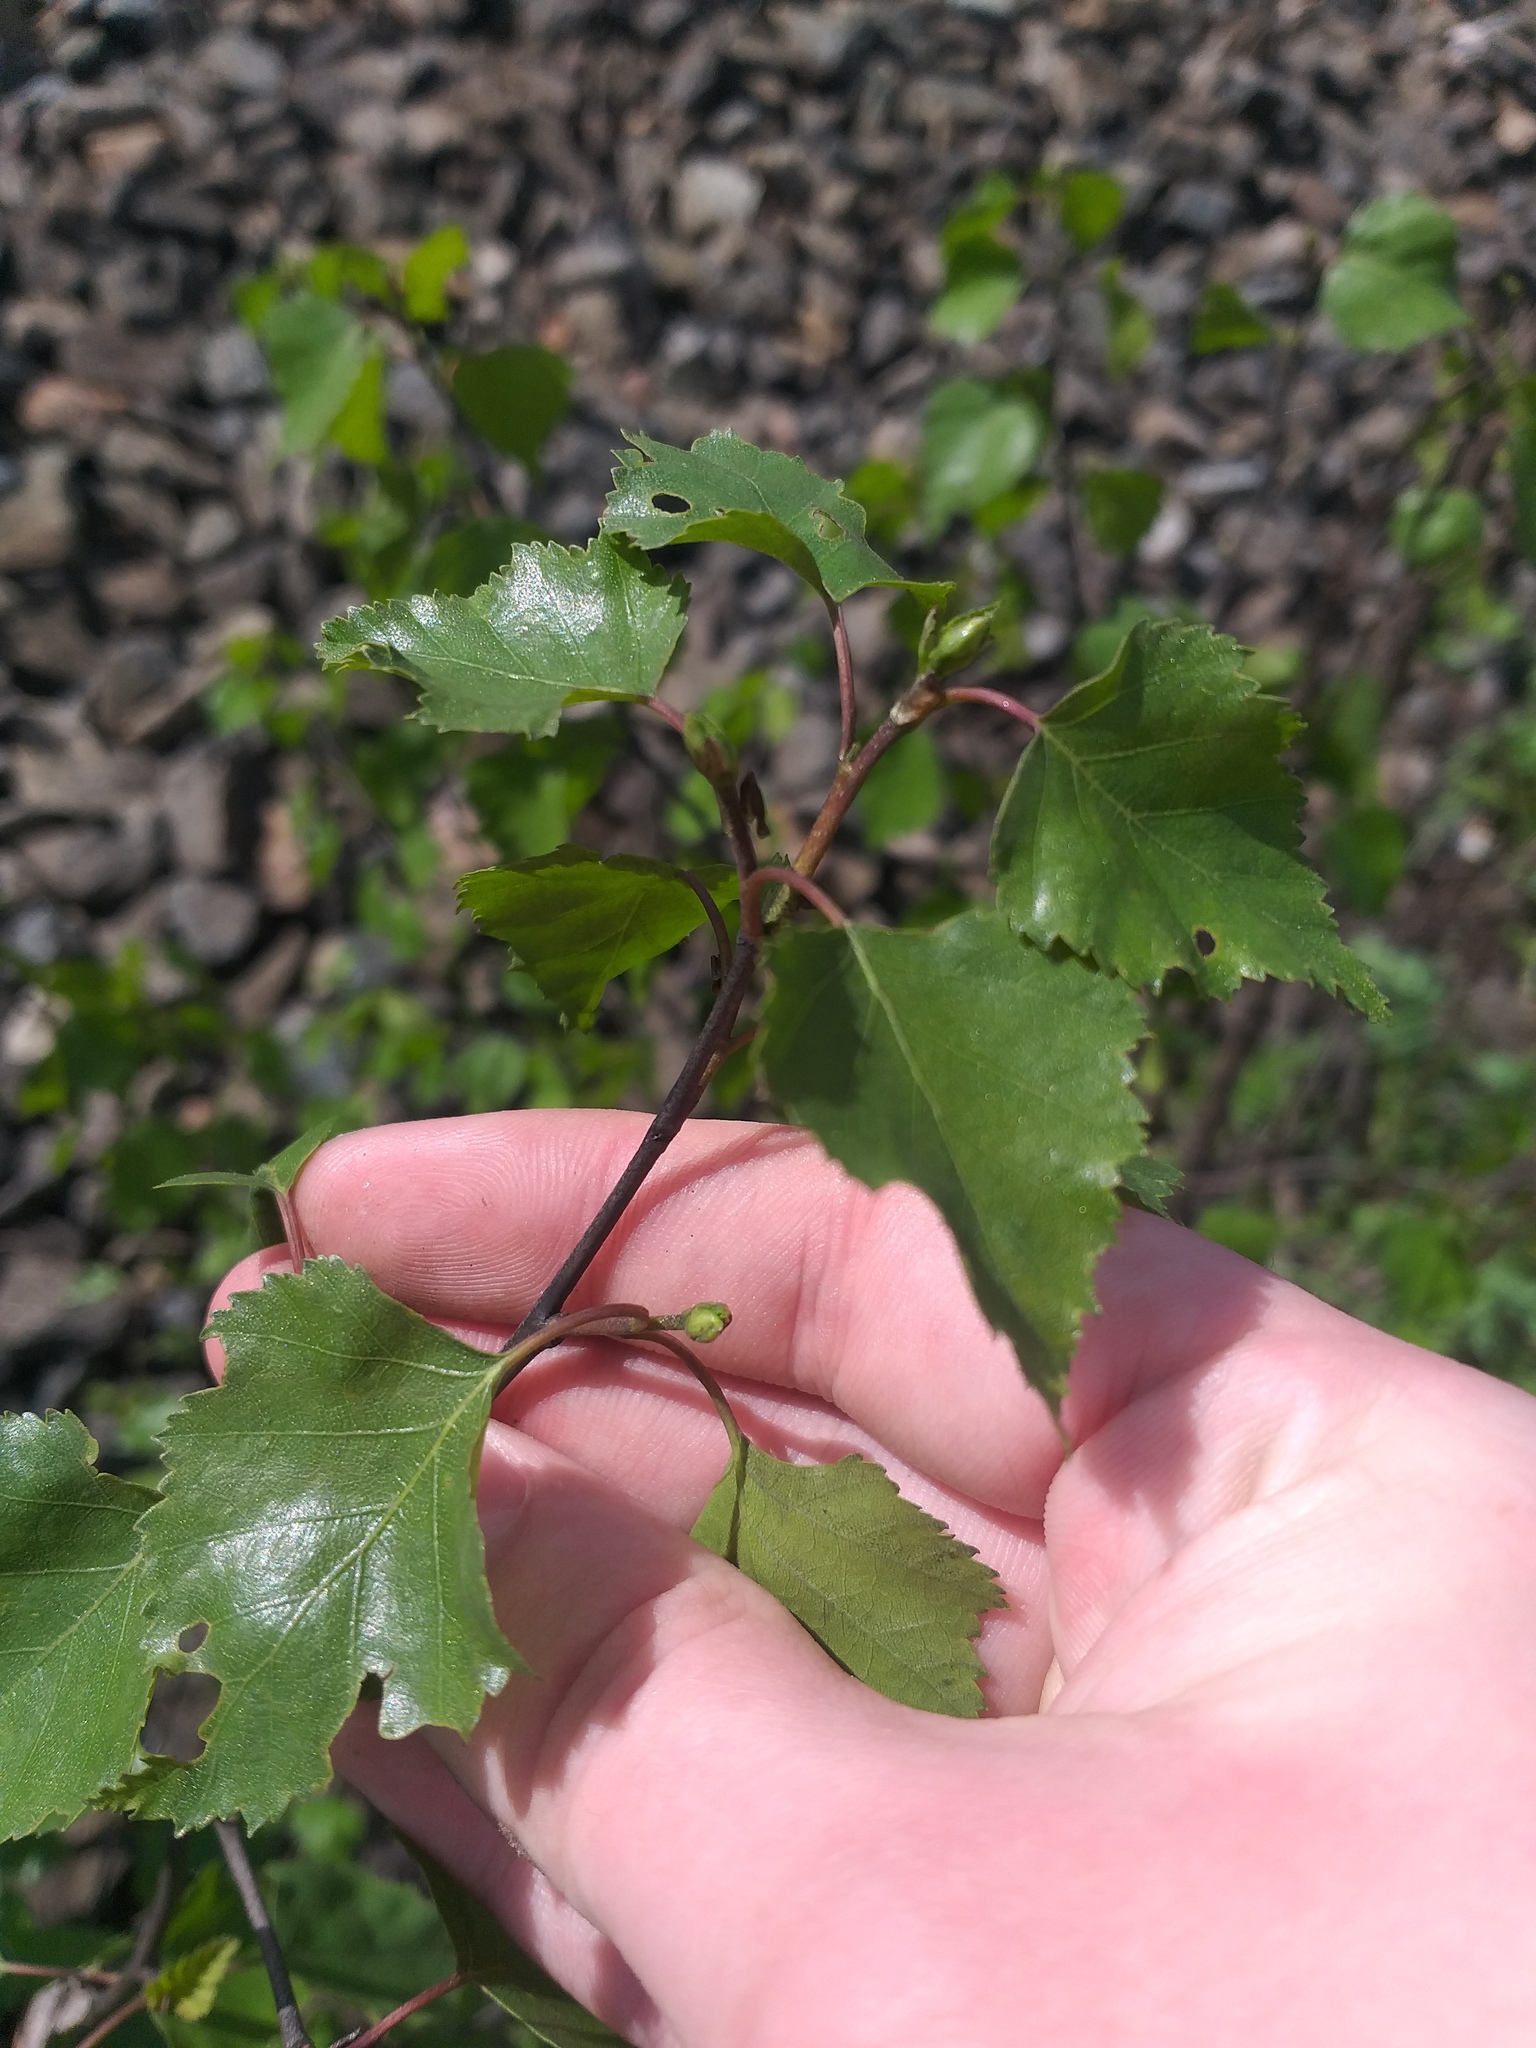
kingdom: Plantae
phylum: Tracheophyta
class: Magnoliopsida
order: Fagales
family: Betulaceae
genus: Betula
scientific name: Betula pendula
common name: Silver birch
